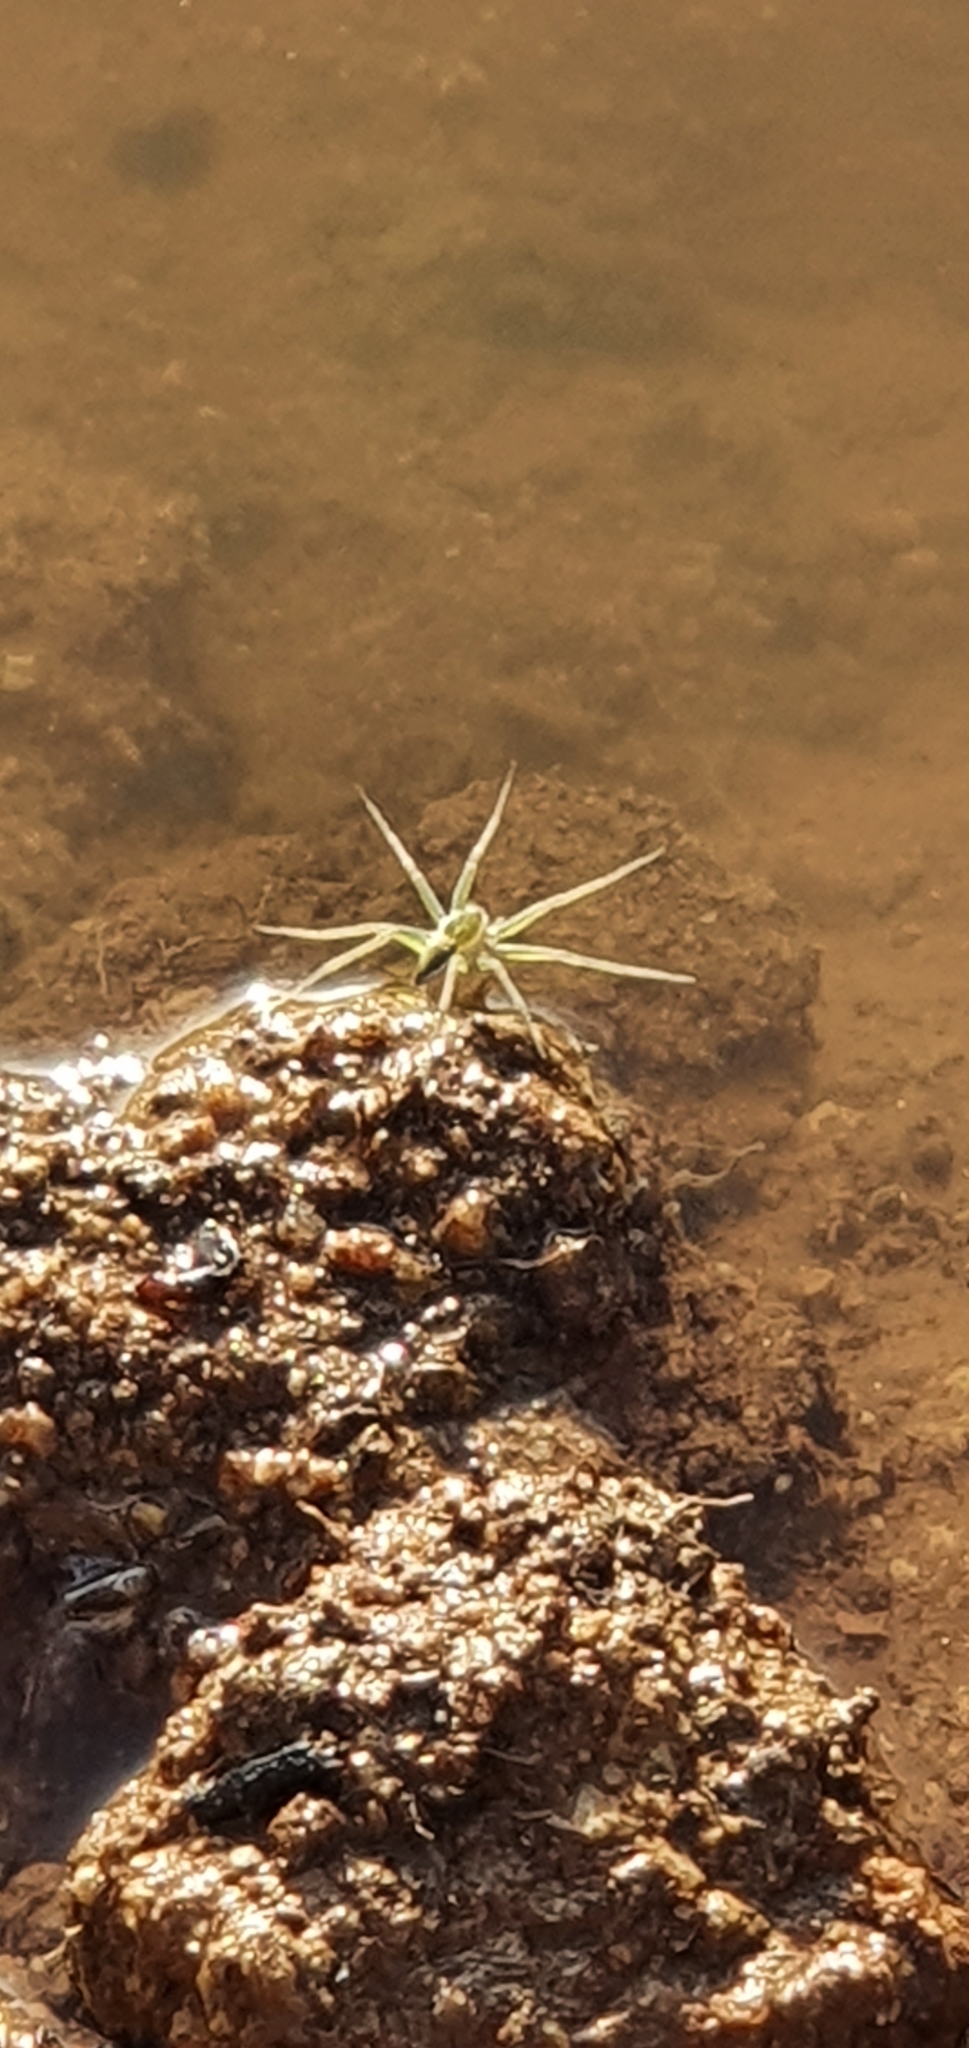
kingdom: Animalia
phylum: Arthropoda
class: Arachnida
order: Araneae
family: Pisauridae
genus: Dolomedes
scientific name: Dolomedes facetus
